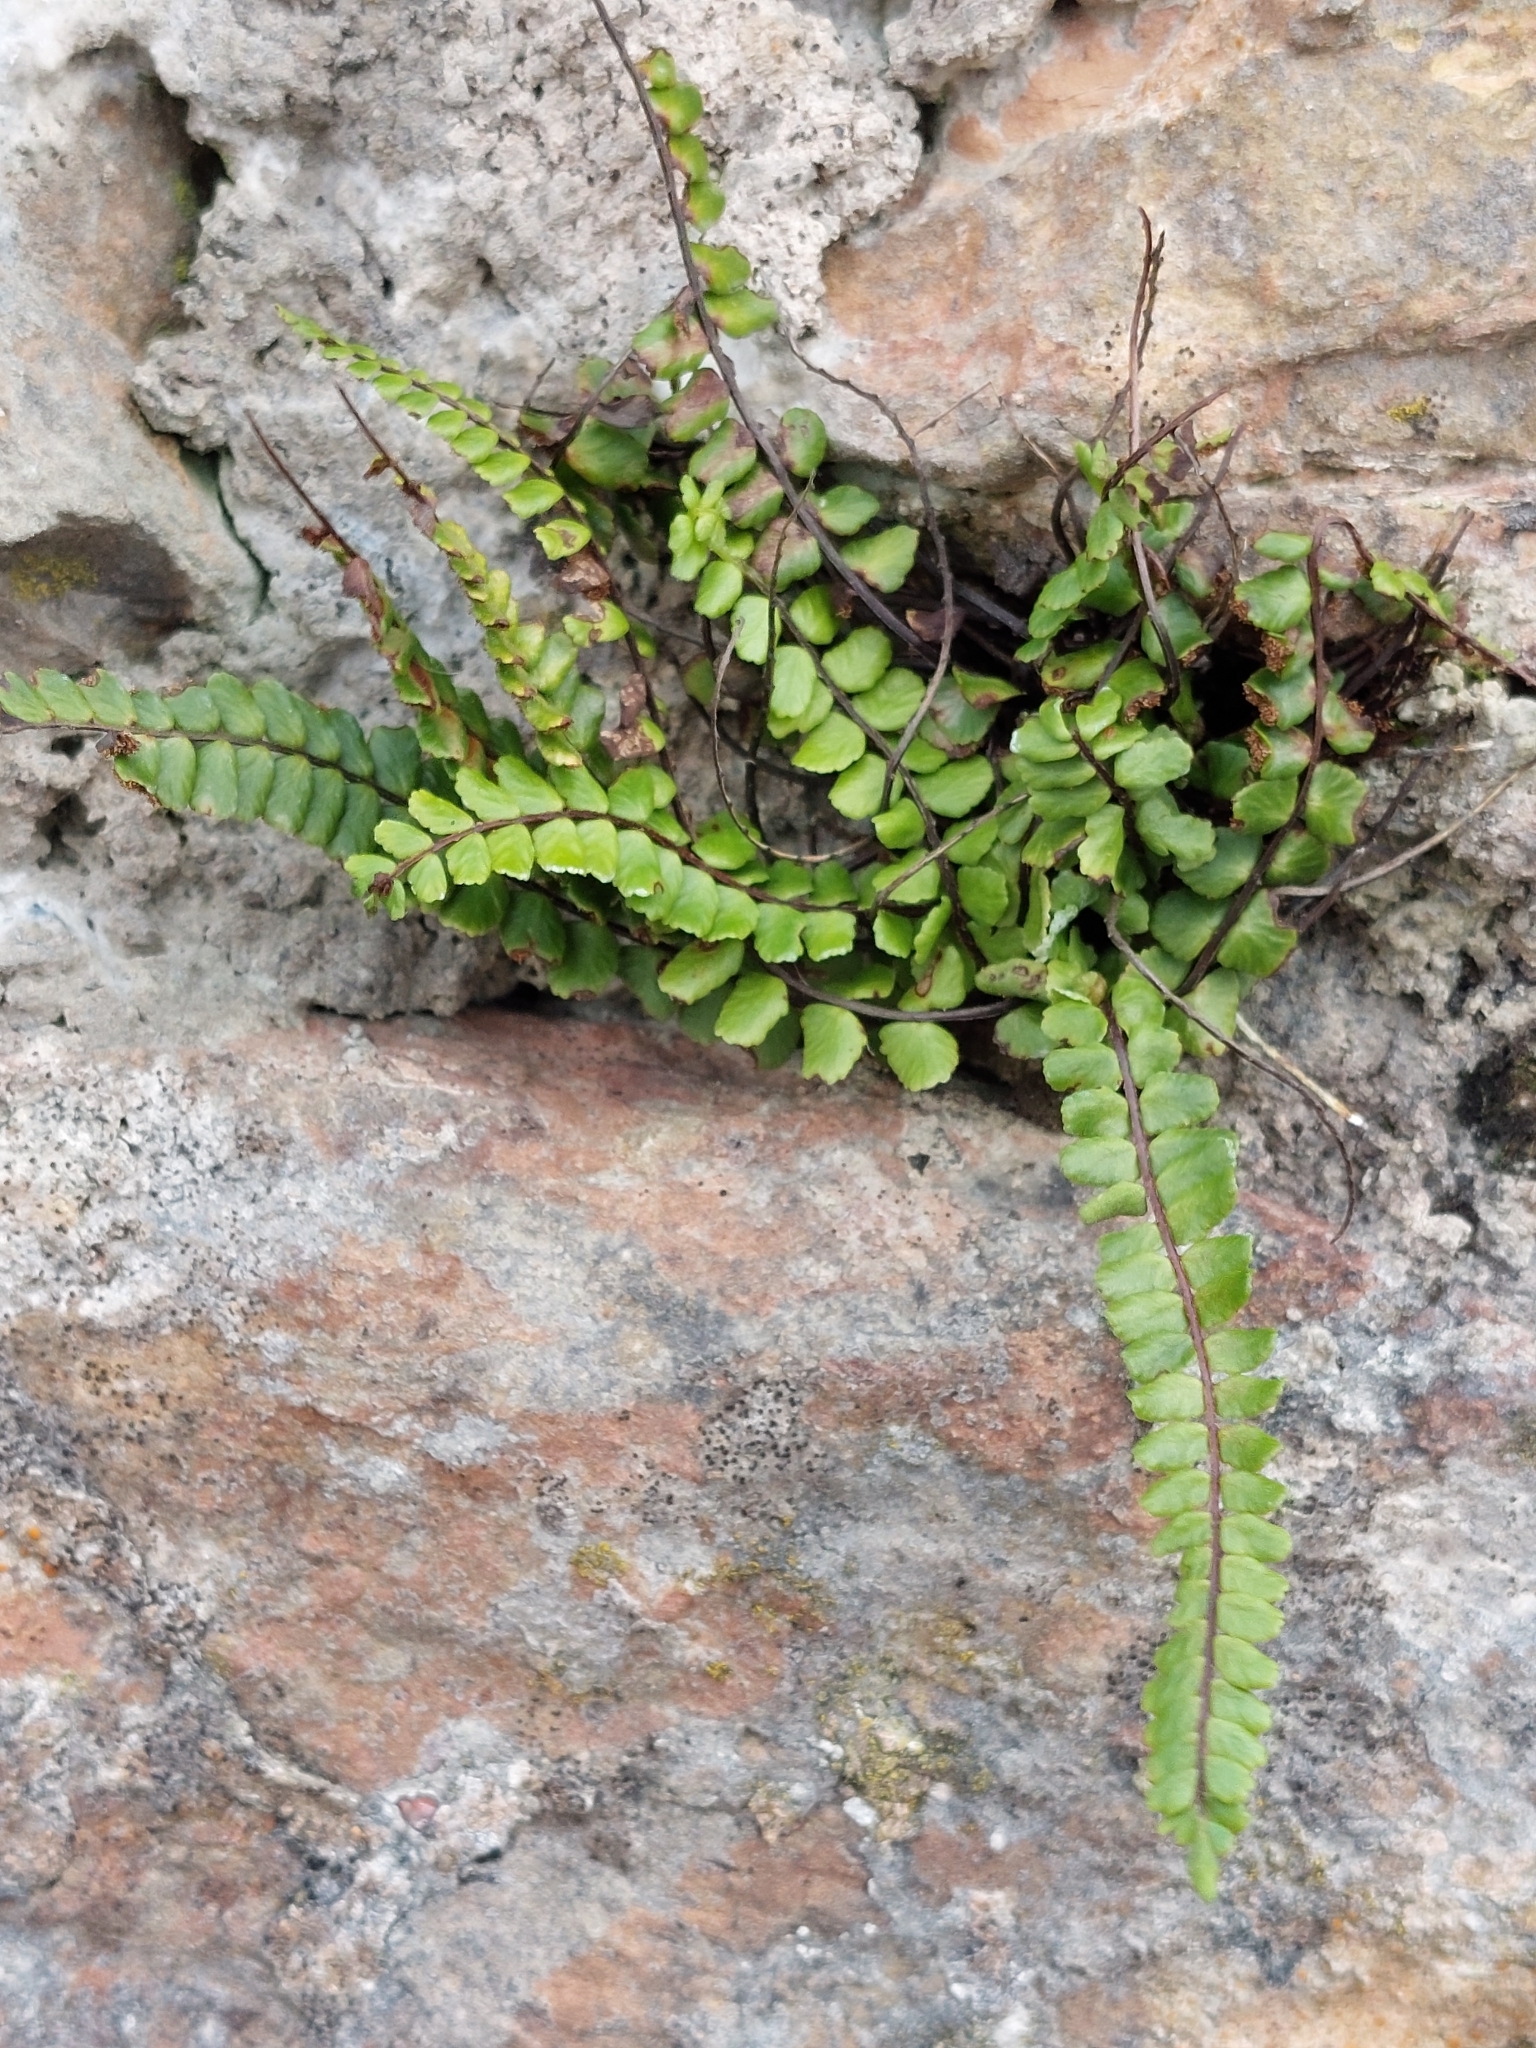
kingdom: Plantae
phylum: Tracheophyta
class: Polypodiopsida
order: Polypodiales
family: Aspleniaceae
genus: Asplenium
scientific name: Asplenium trichomanes
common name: Maidenhair spleenwort
